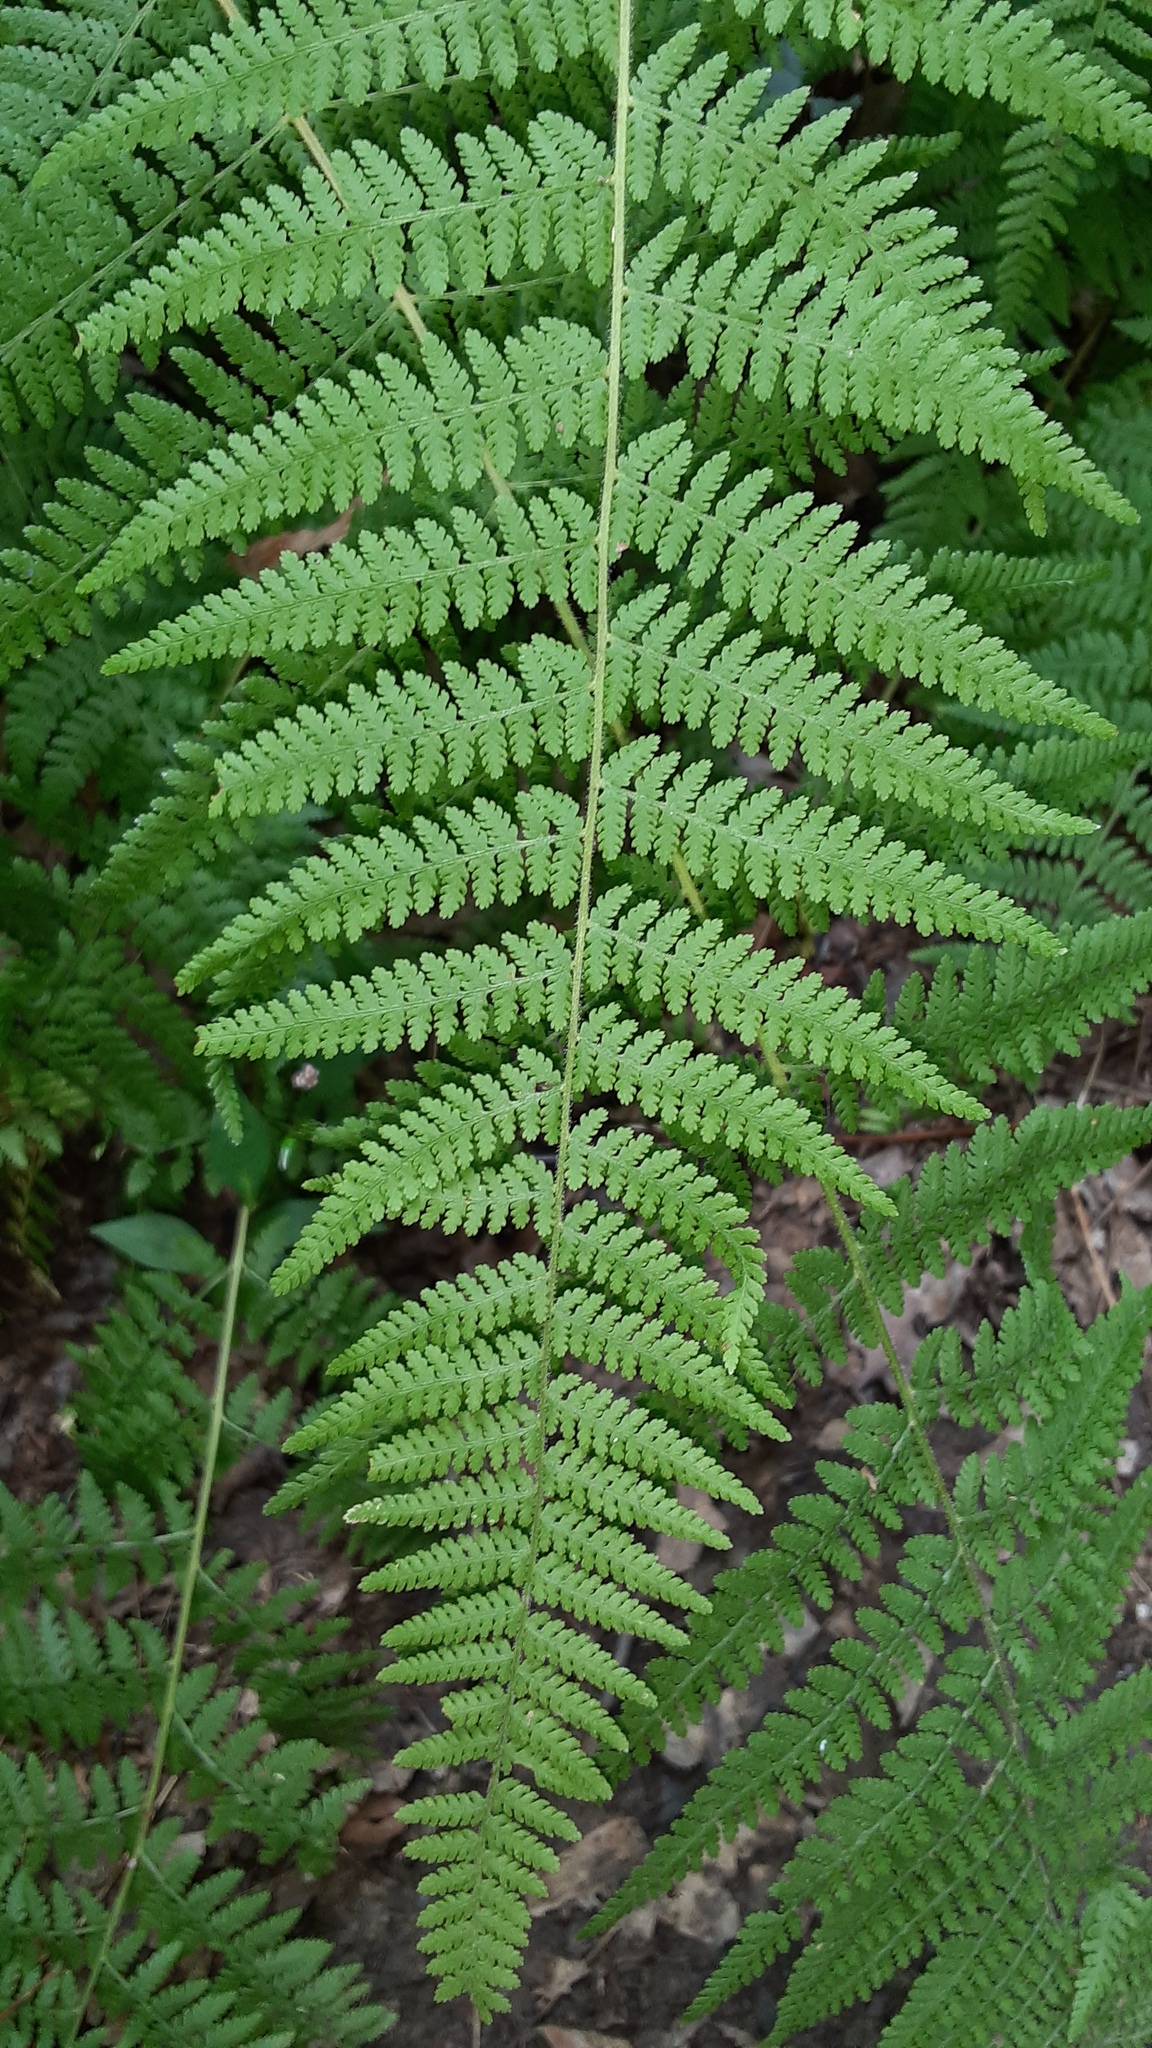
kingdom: Plantae
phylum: Tracheophyta
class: Polypodiopsida
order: Polypodiales
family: Dennstaedtiaceae
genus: Sitobolium
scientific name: Sitobolium punctilobum
